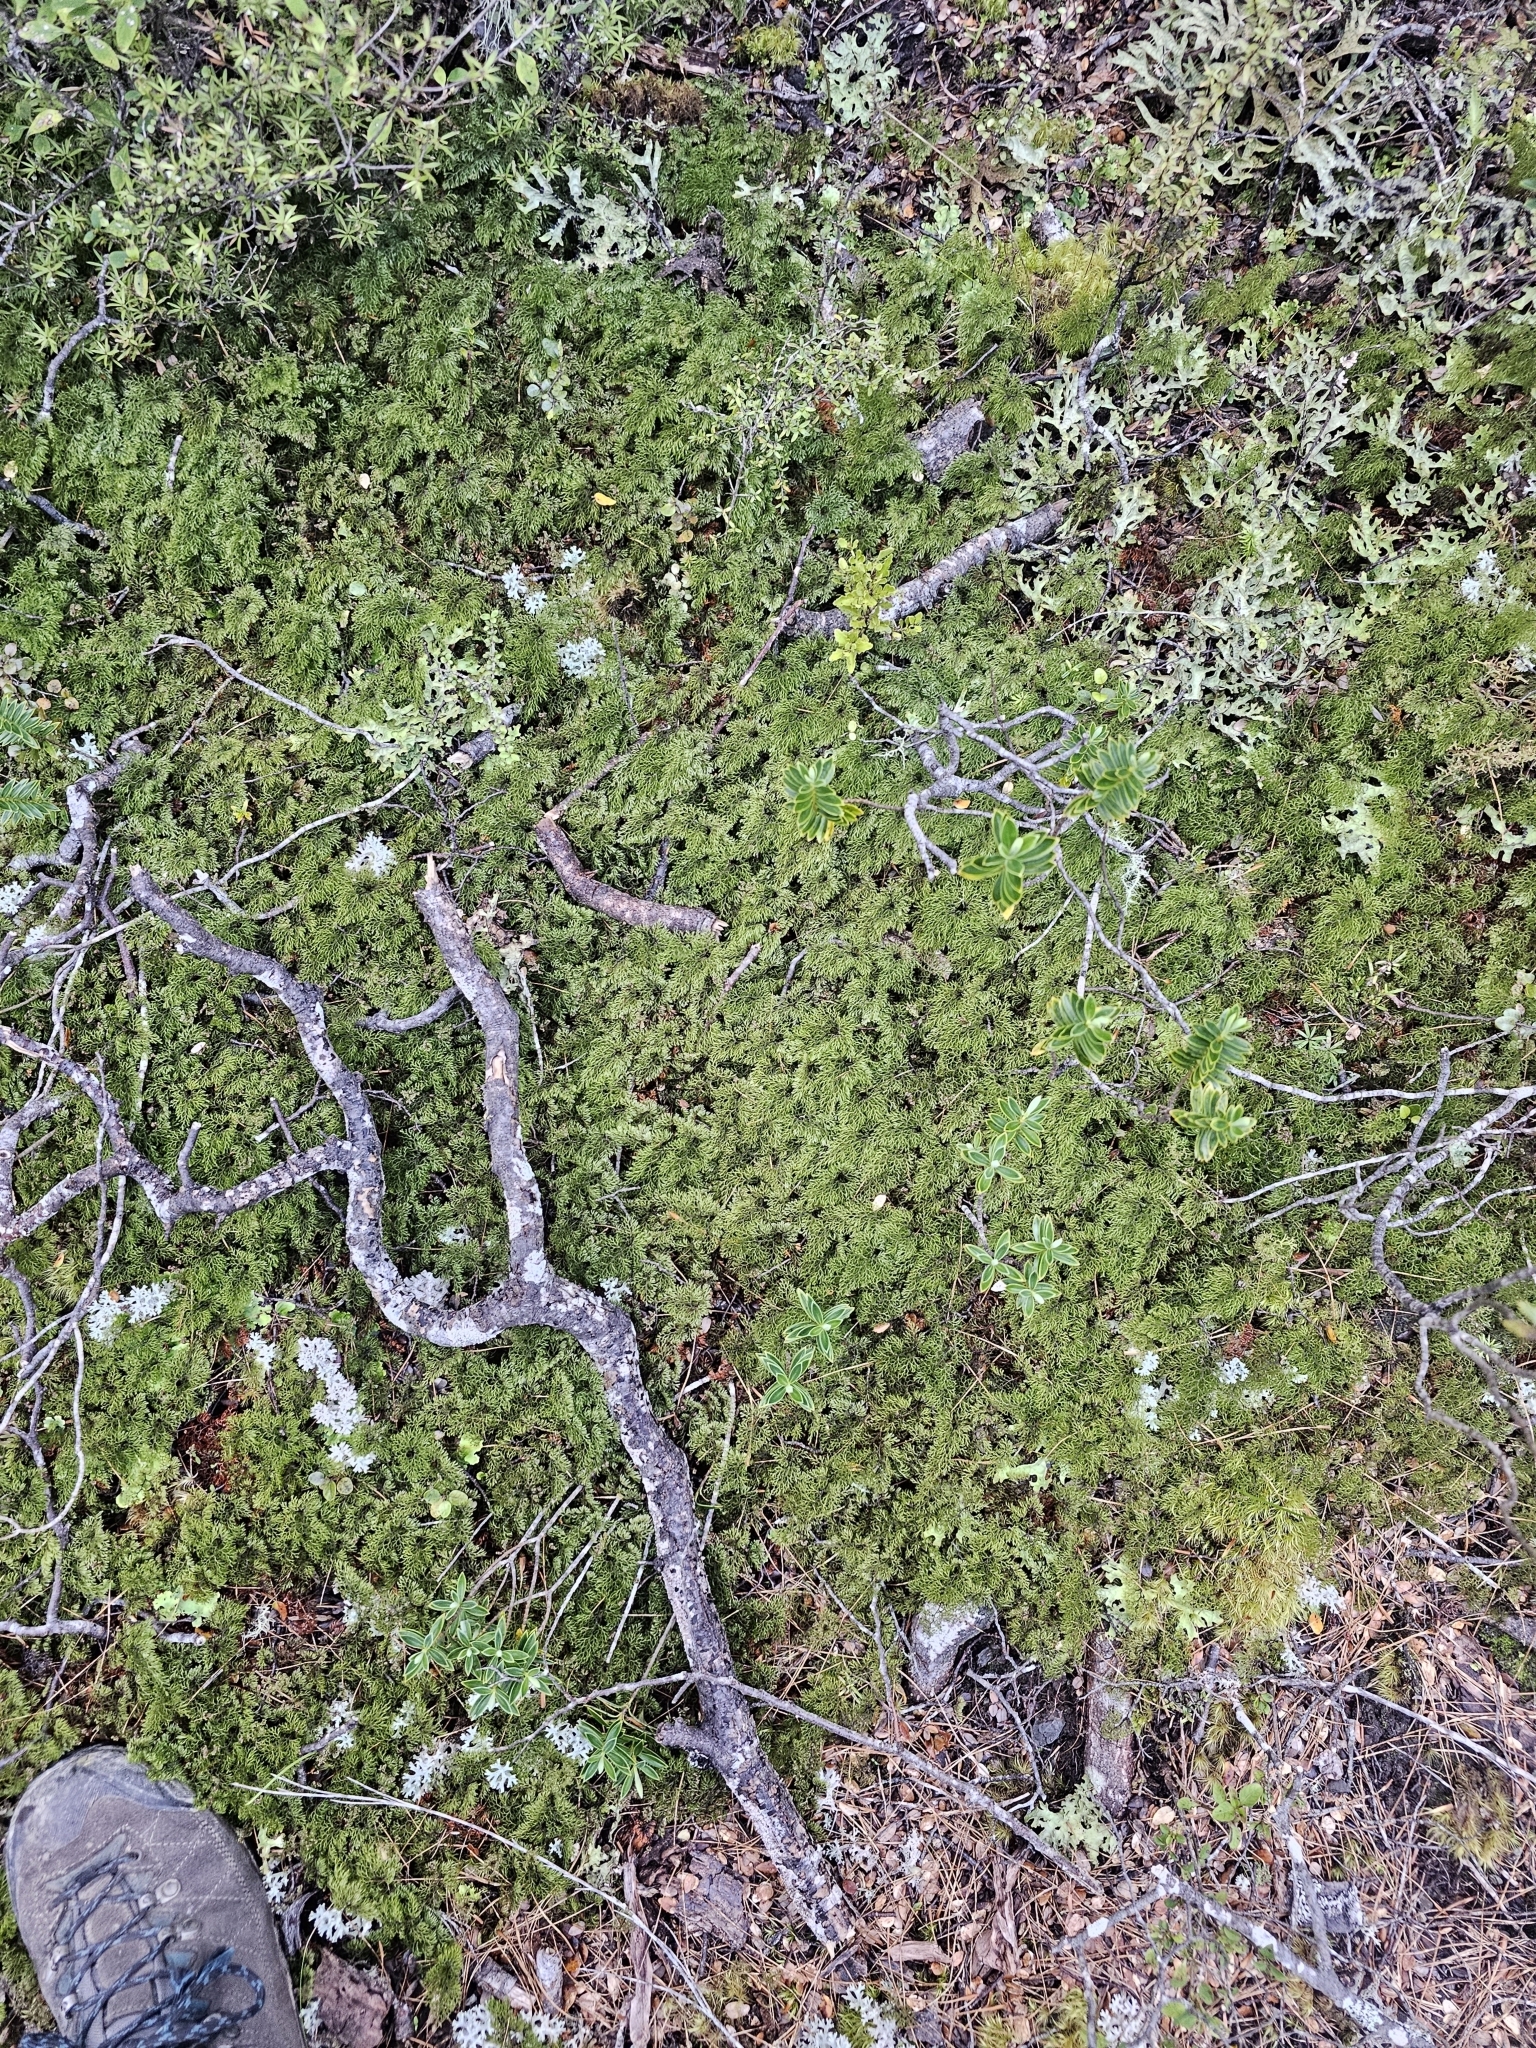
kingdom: Plantae
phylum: Tracheophyta
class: Polypodiopsida
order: Hymenophyllales
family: Hymenophyllaceae
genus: Hymenophyllum
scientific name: Hymenophyllum multifidum
